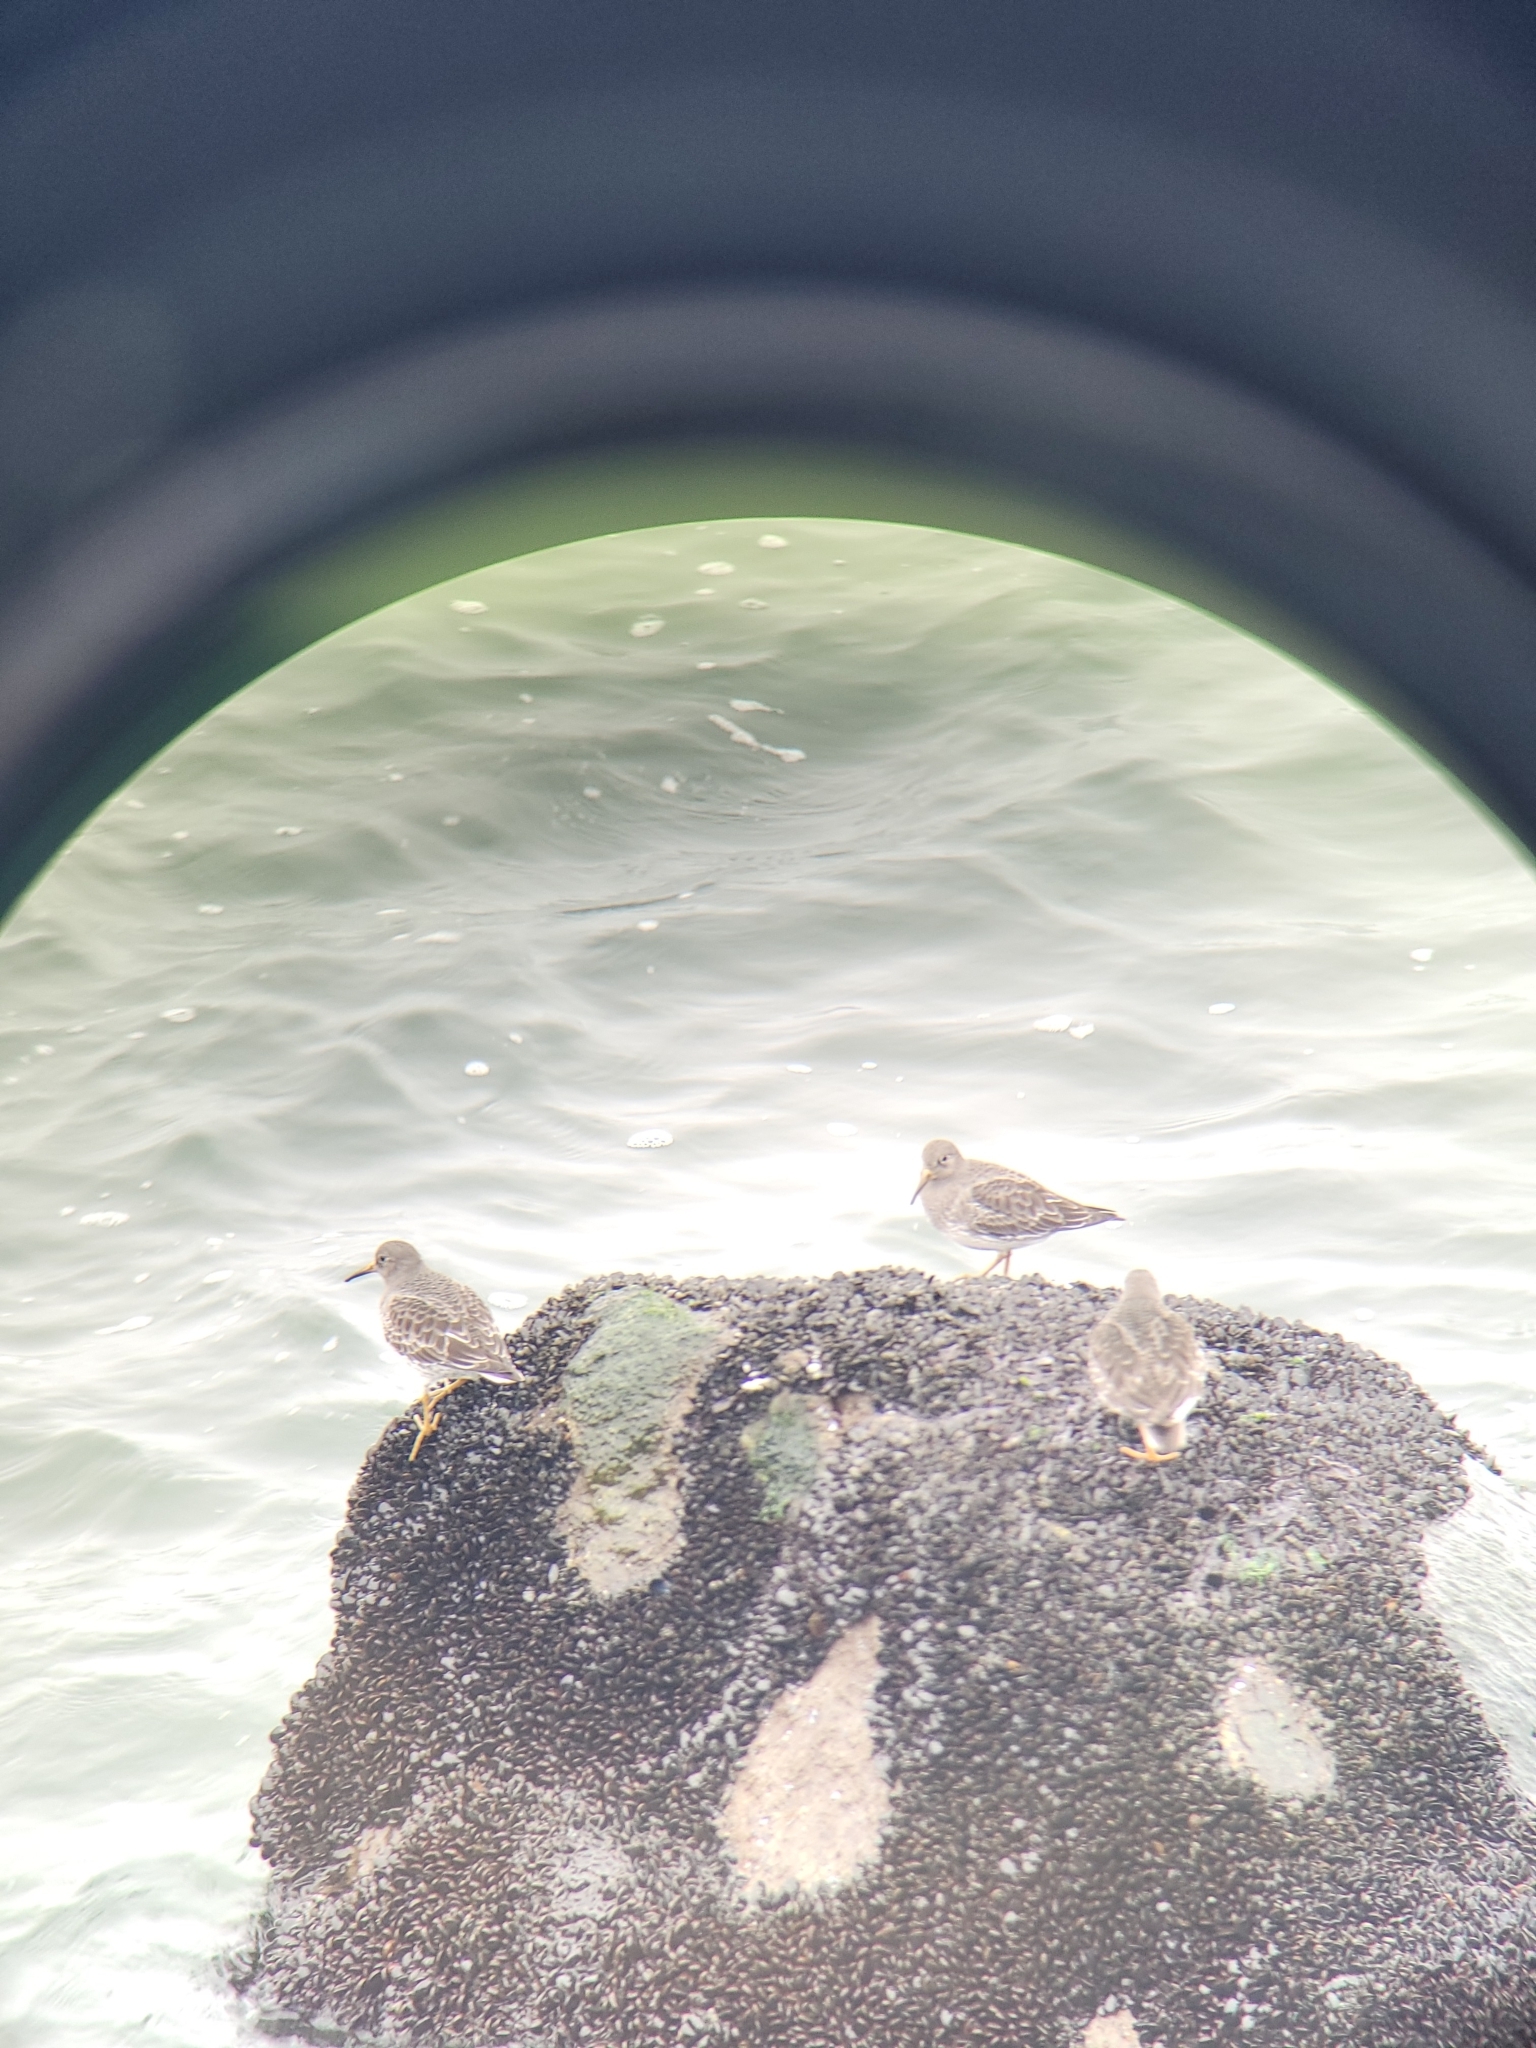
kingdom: Animalia
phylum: Chordata
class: Aves
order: Charadriiformes
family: Scolopacidae
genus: Calidris
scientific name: Calidris maritima
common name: Purple sandpiper
